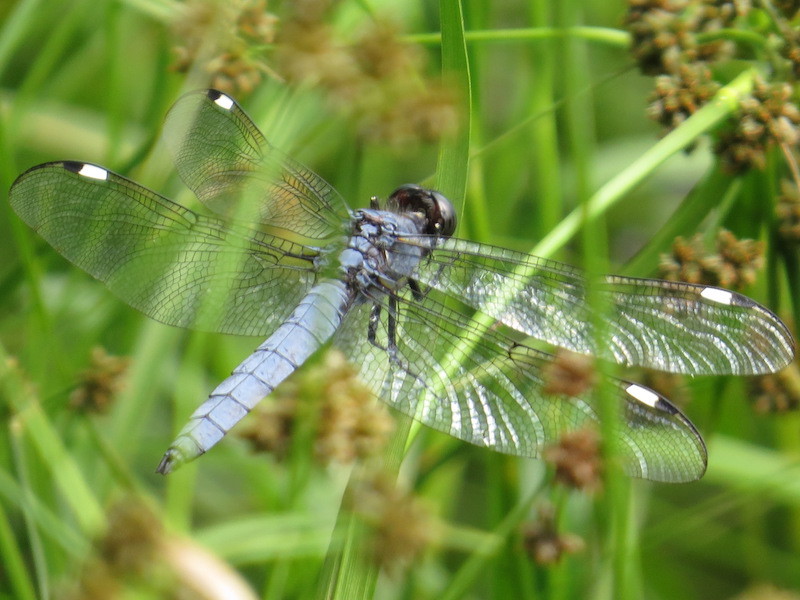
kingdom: Animalia
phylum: Arthropoda
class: Insecta
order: Odonata
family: Libellulidae
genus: Libellula
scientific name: Libellula cyanea
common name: Spangled skimmer
